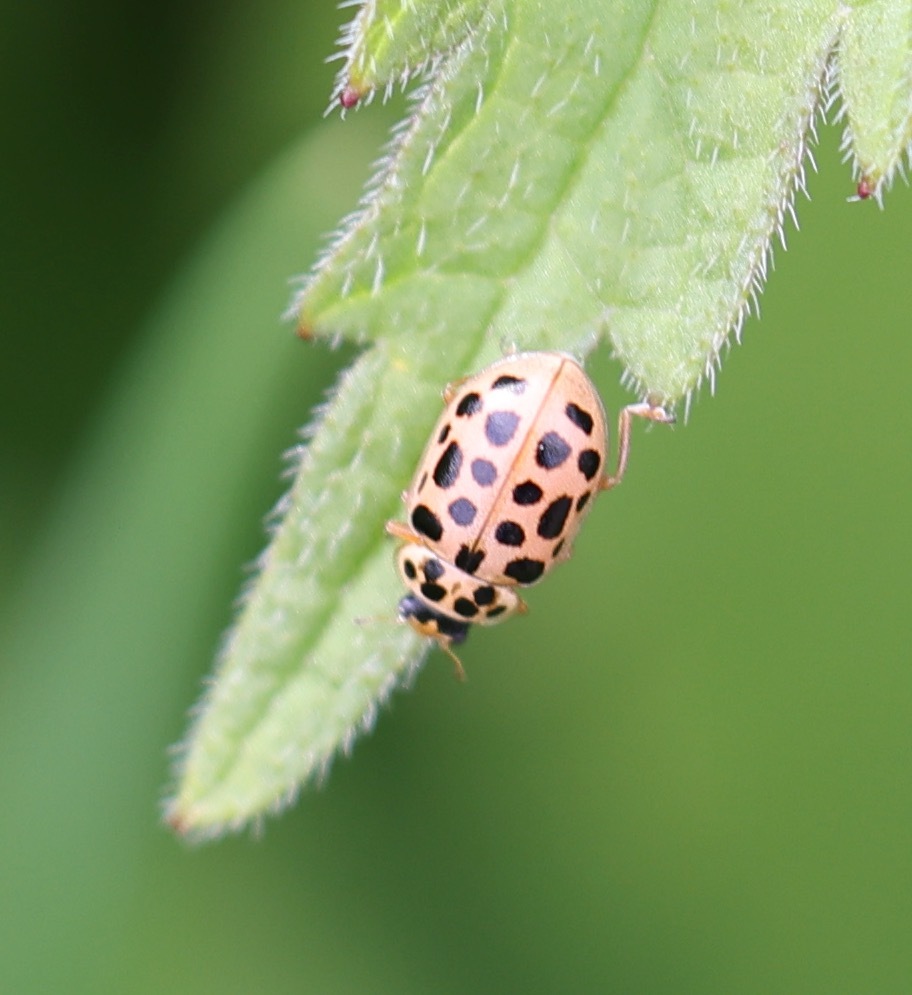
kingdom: Animalia
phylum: Arthropoda
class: Insecta
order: Coleoptera
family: Coccinellidae
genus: Anisosticta
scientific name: Anisosticta novemdecimpunctata
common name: Water ladybird
